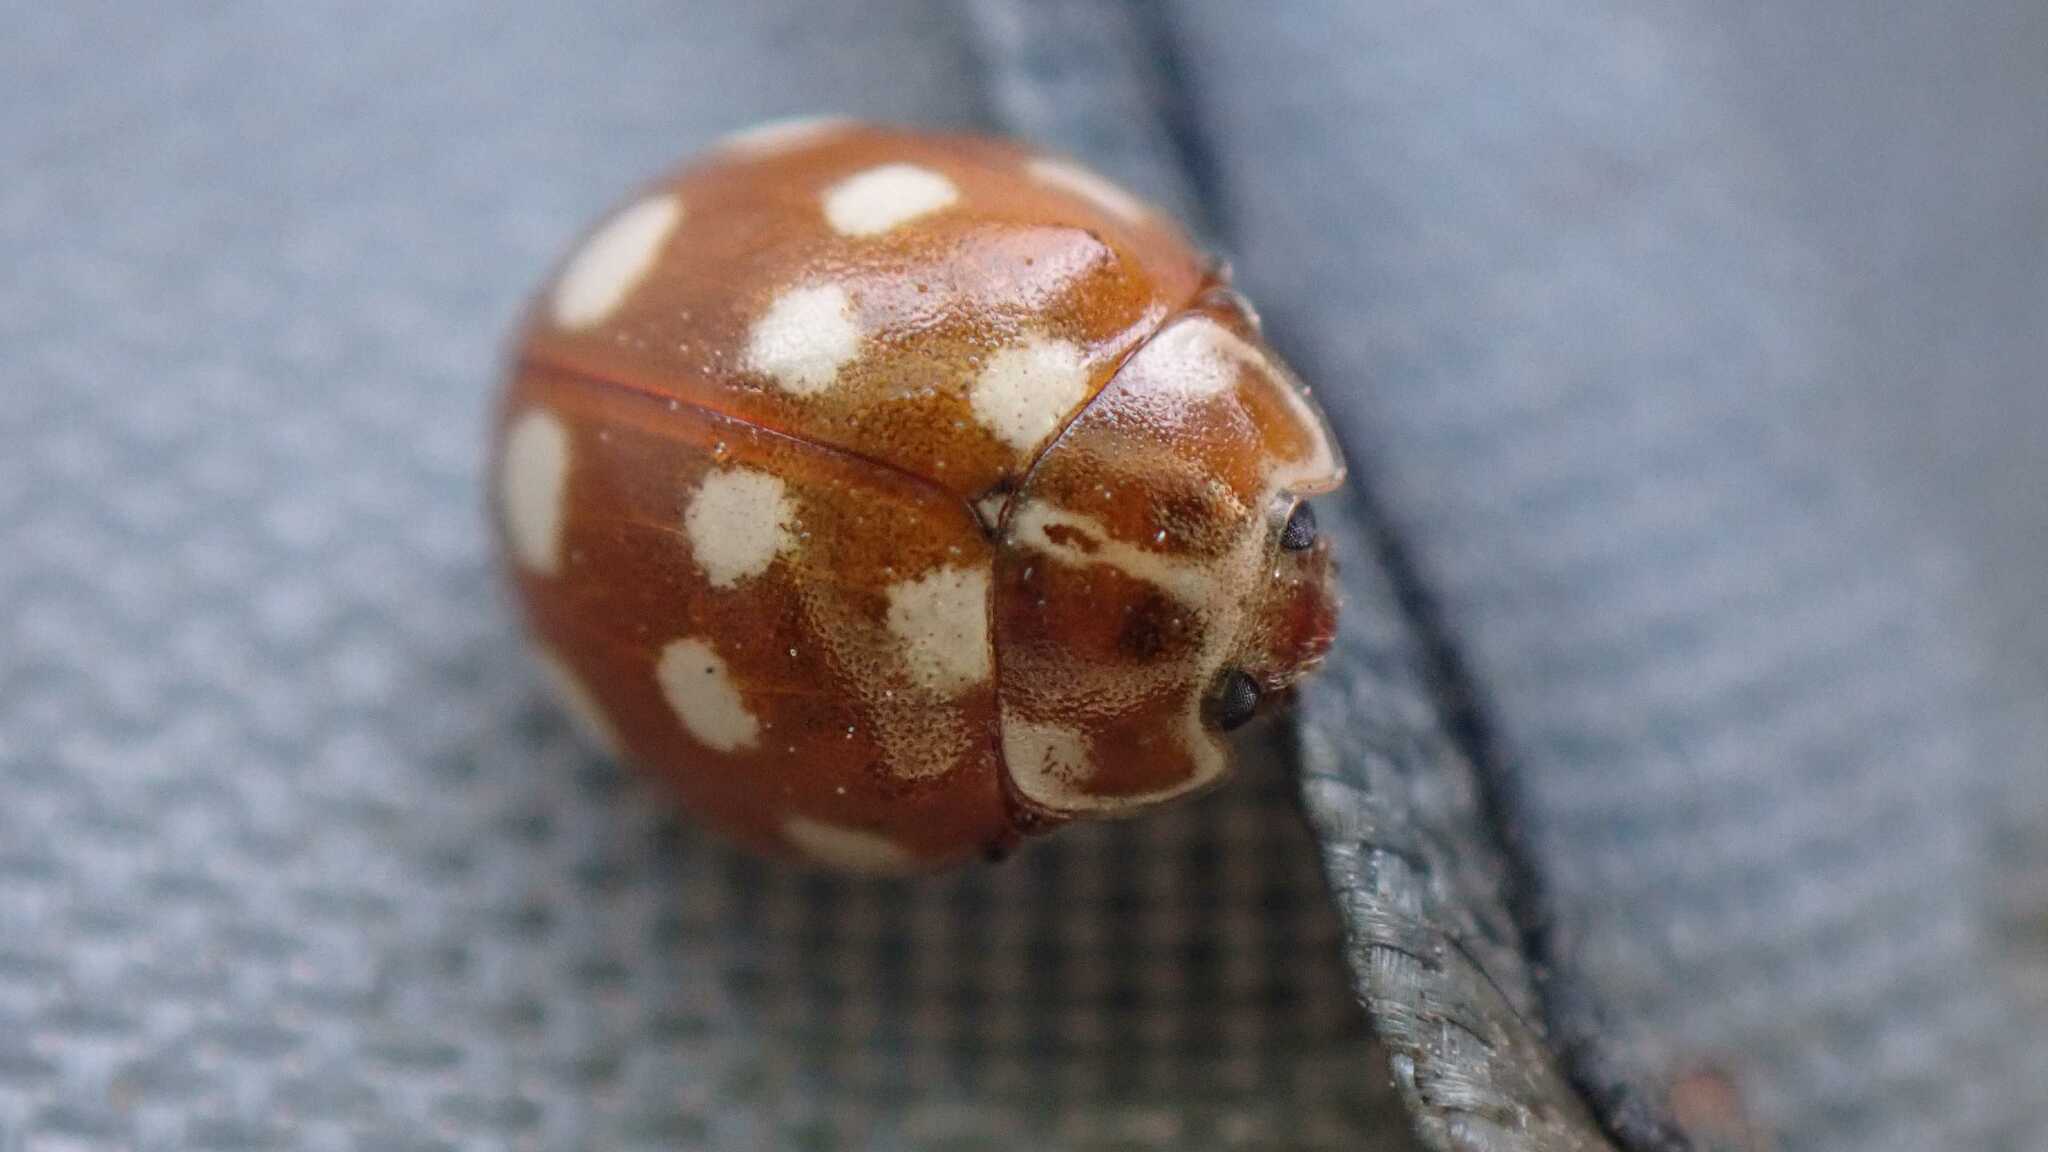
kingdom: Animalia
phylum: Arthropoda
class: Insecta
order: Coleoptera
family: Coccinellidae
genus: Calvia
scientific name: Calvia quatuordecimguttata
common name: Cream-spot ladybird
